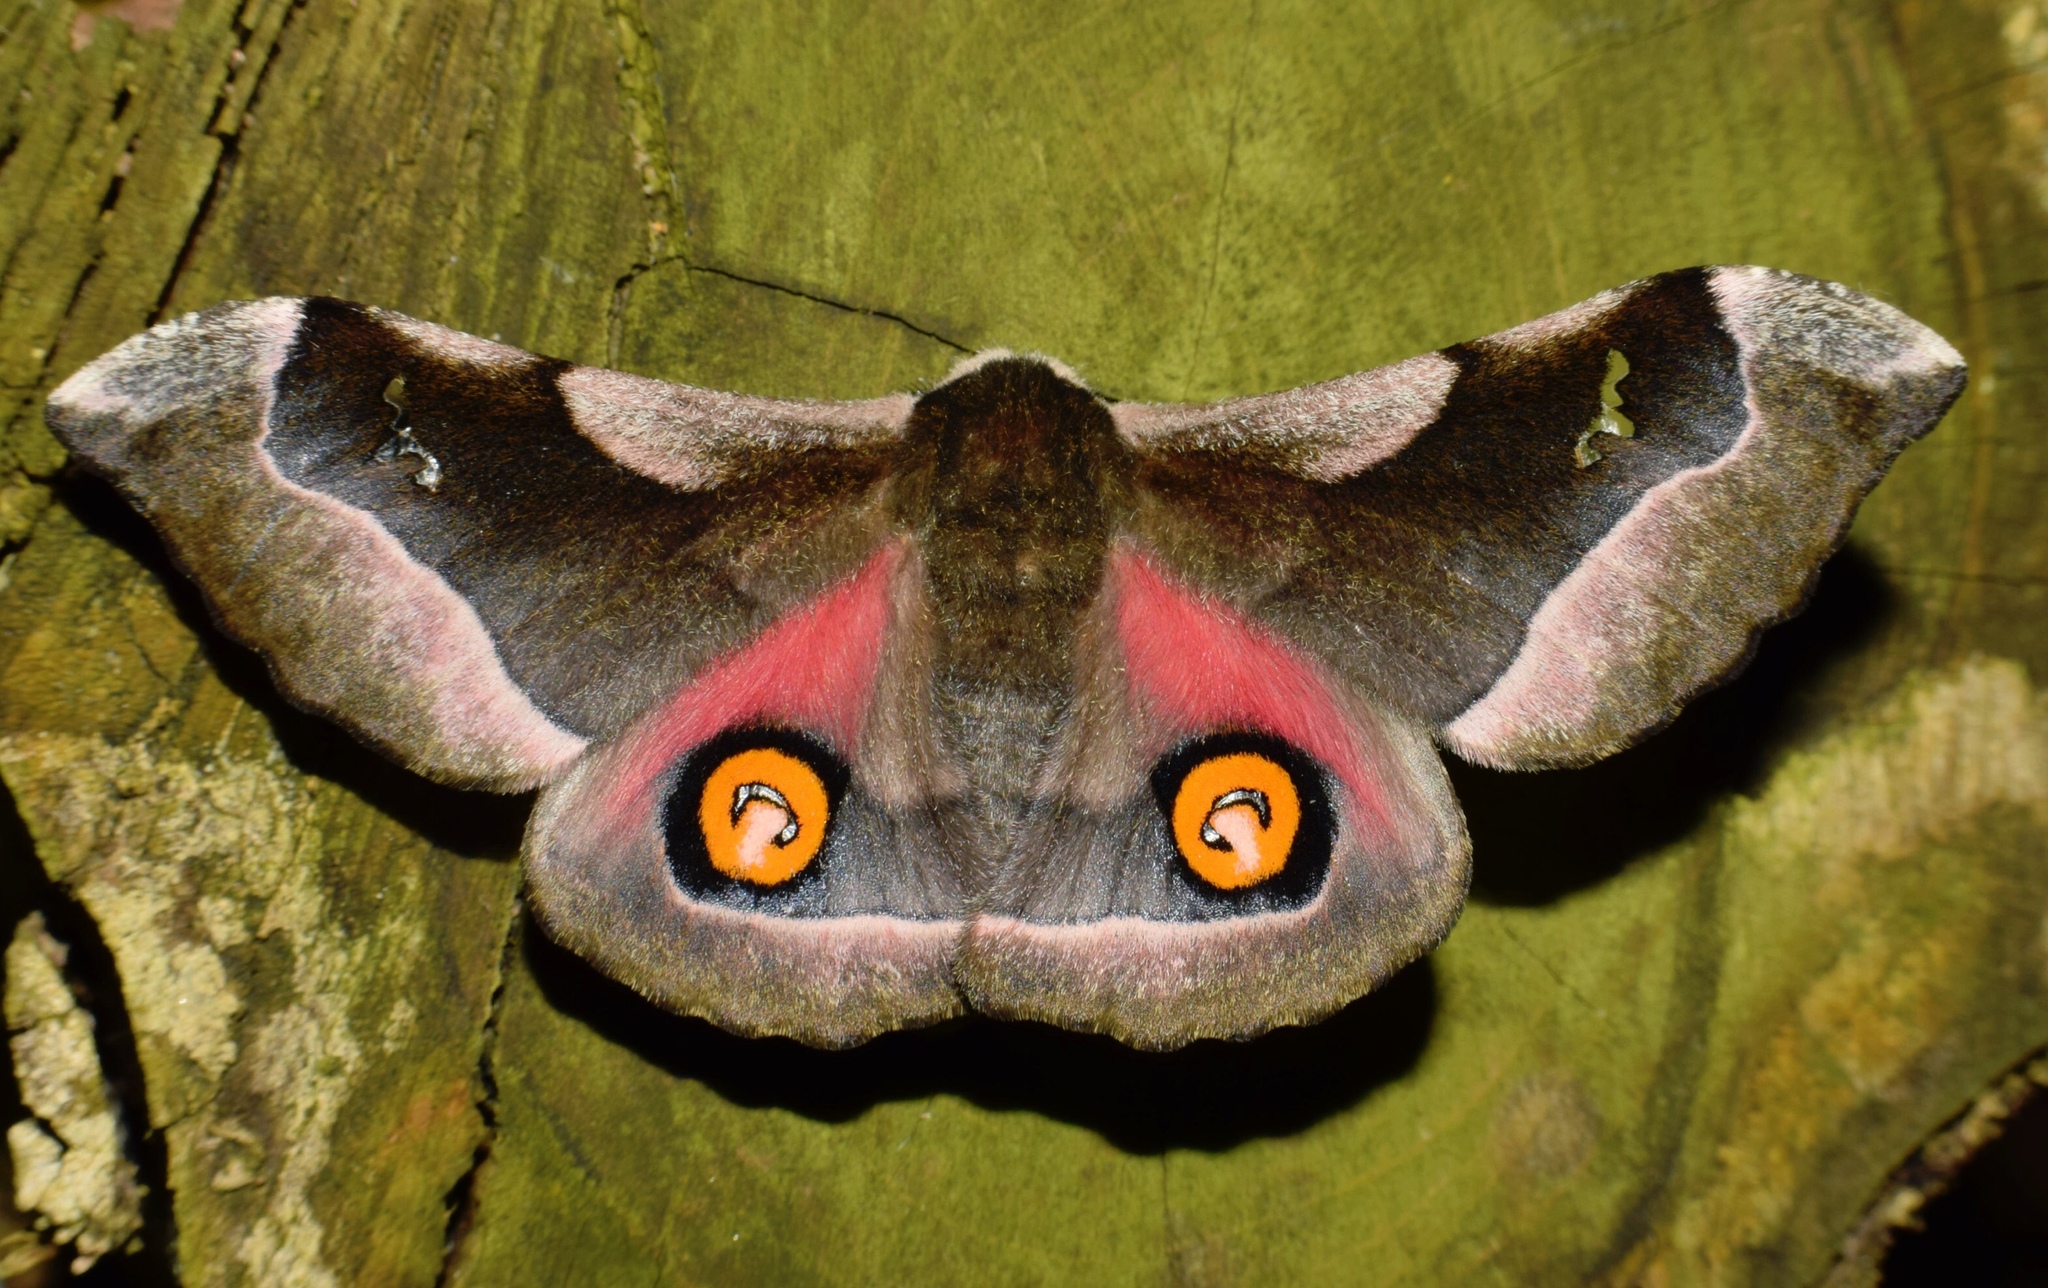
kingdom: Animalia
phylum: Arthropoda
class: Insecta
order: Lepidoptera
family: Saturniidae
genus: Ludia
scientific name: Ludia delegorguei
